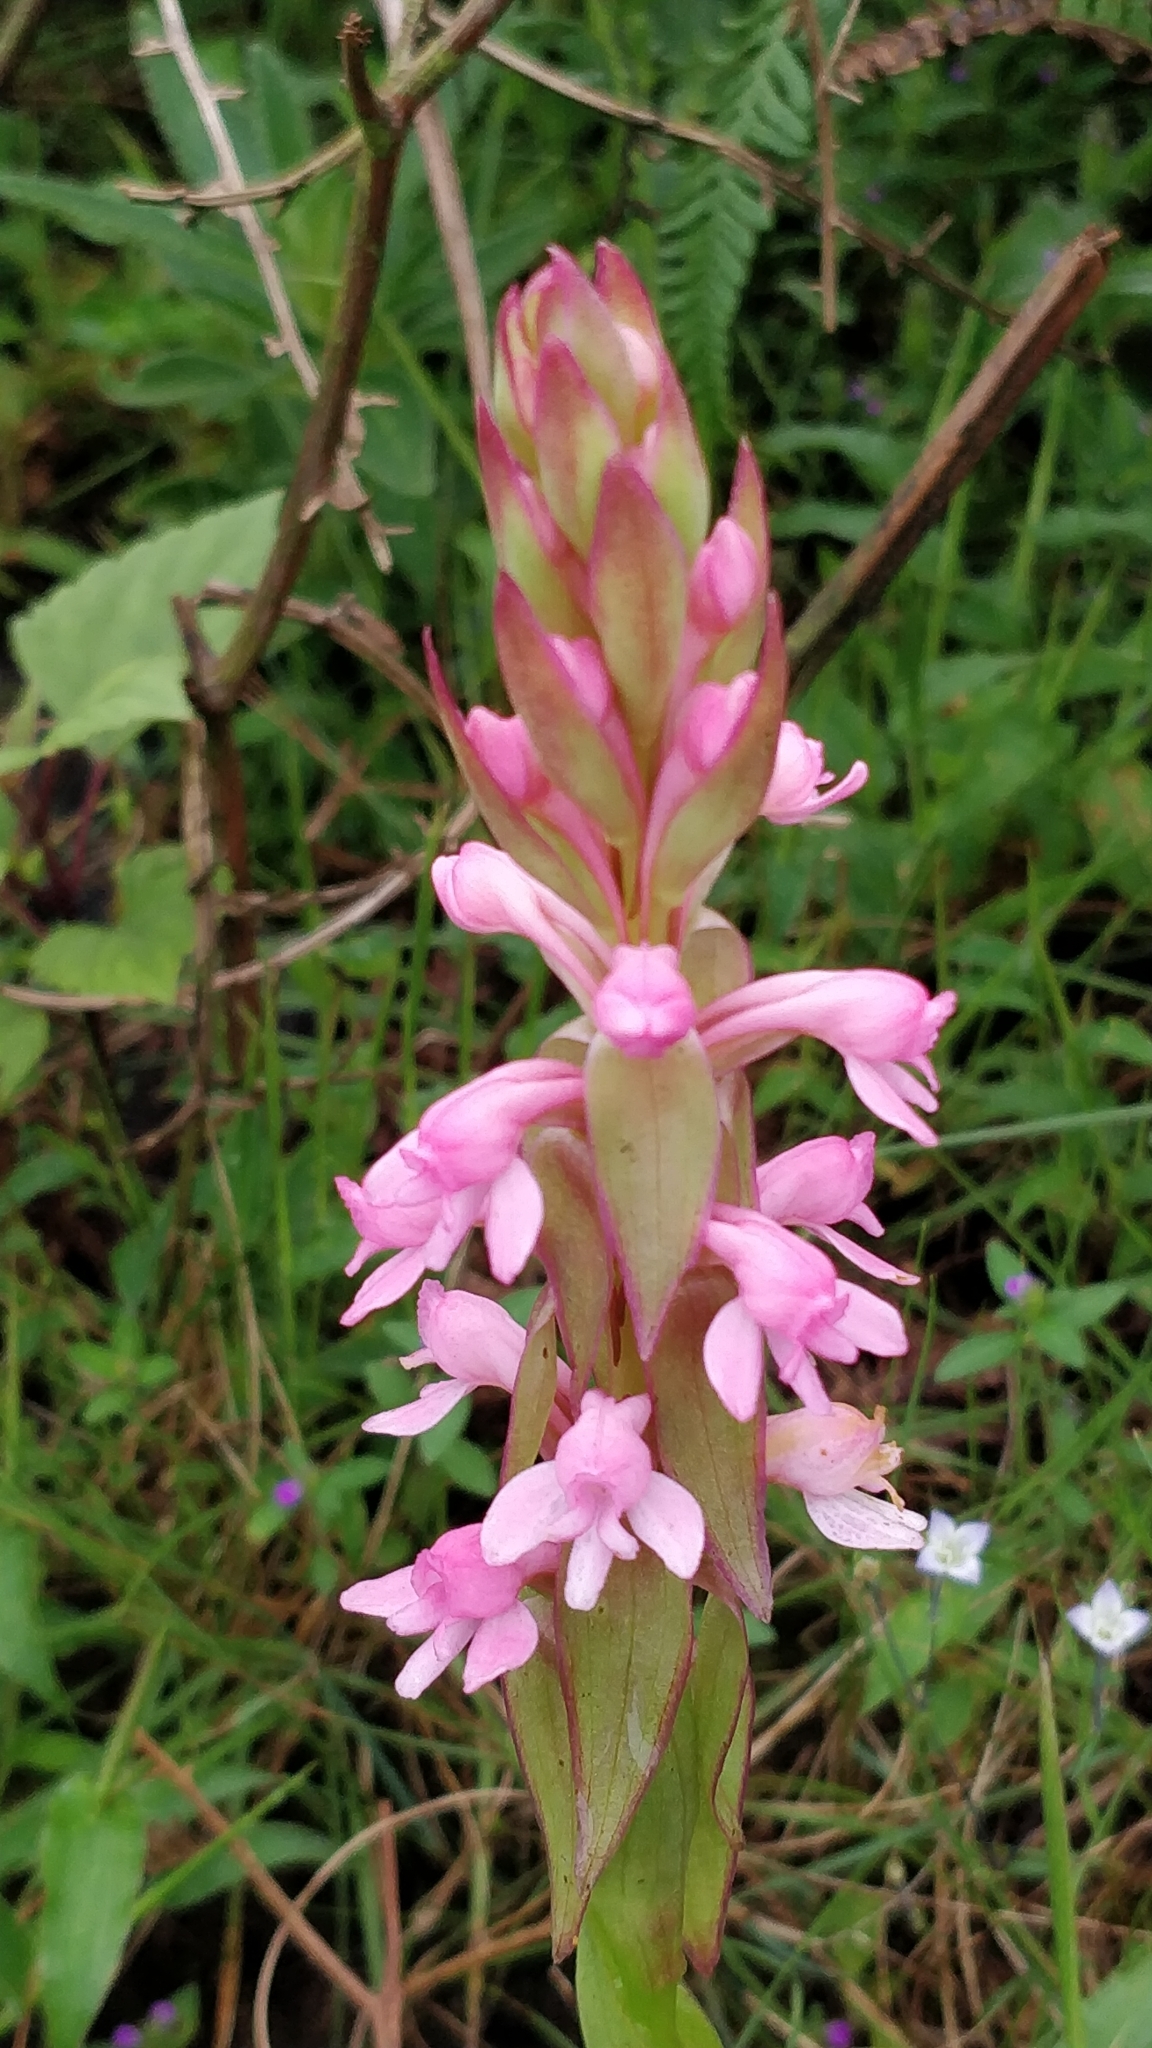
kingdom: Plantae
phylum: Tracheophyta
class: Liliopsida
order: Asparagales
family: Orchidaceae
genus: Satyrium
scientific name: Satyrium nepalense
